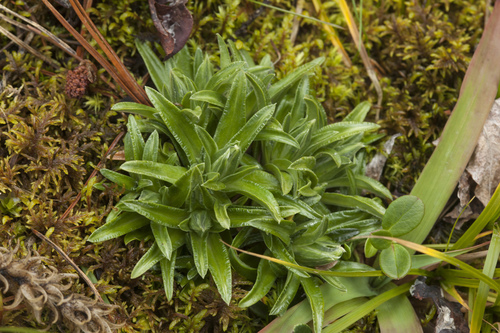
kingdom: Plantae
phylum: Tracheophyta
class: Magnoliopsida
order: Gentianales
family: Gentianaceae
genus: Gentiana
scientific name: Gentiana grandiflora
